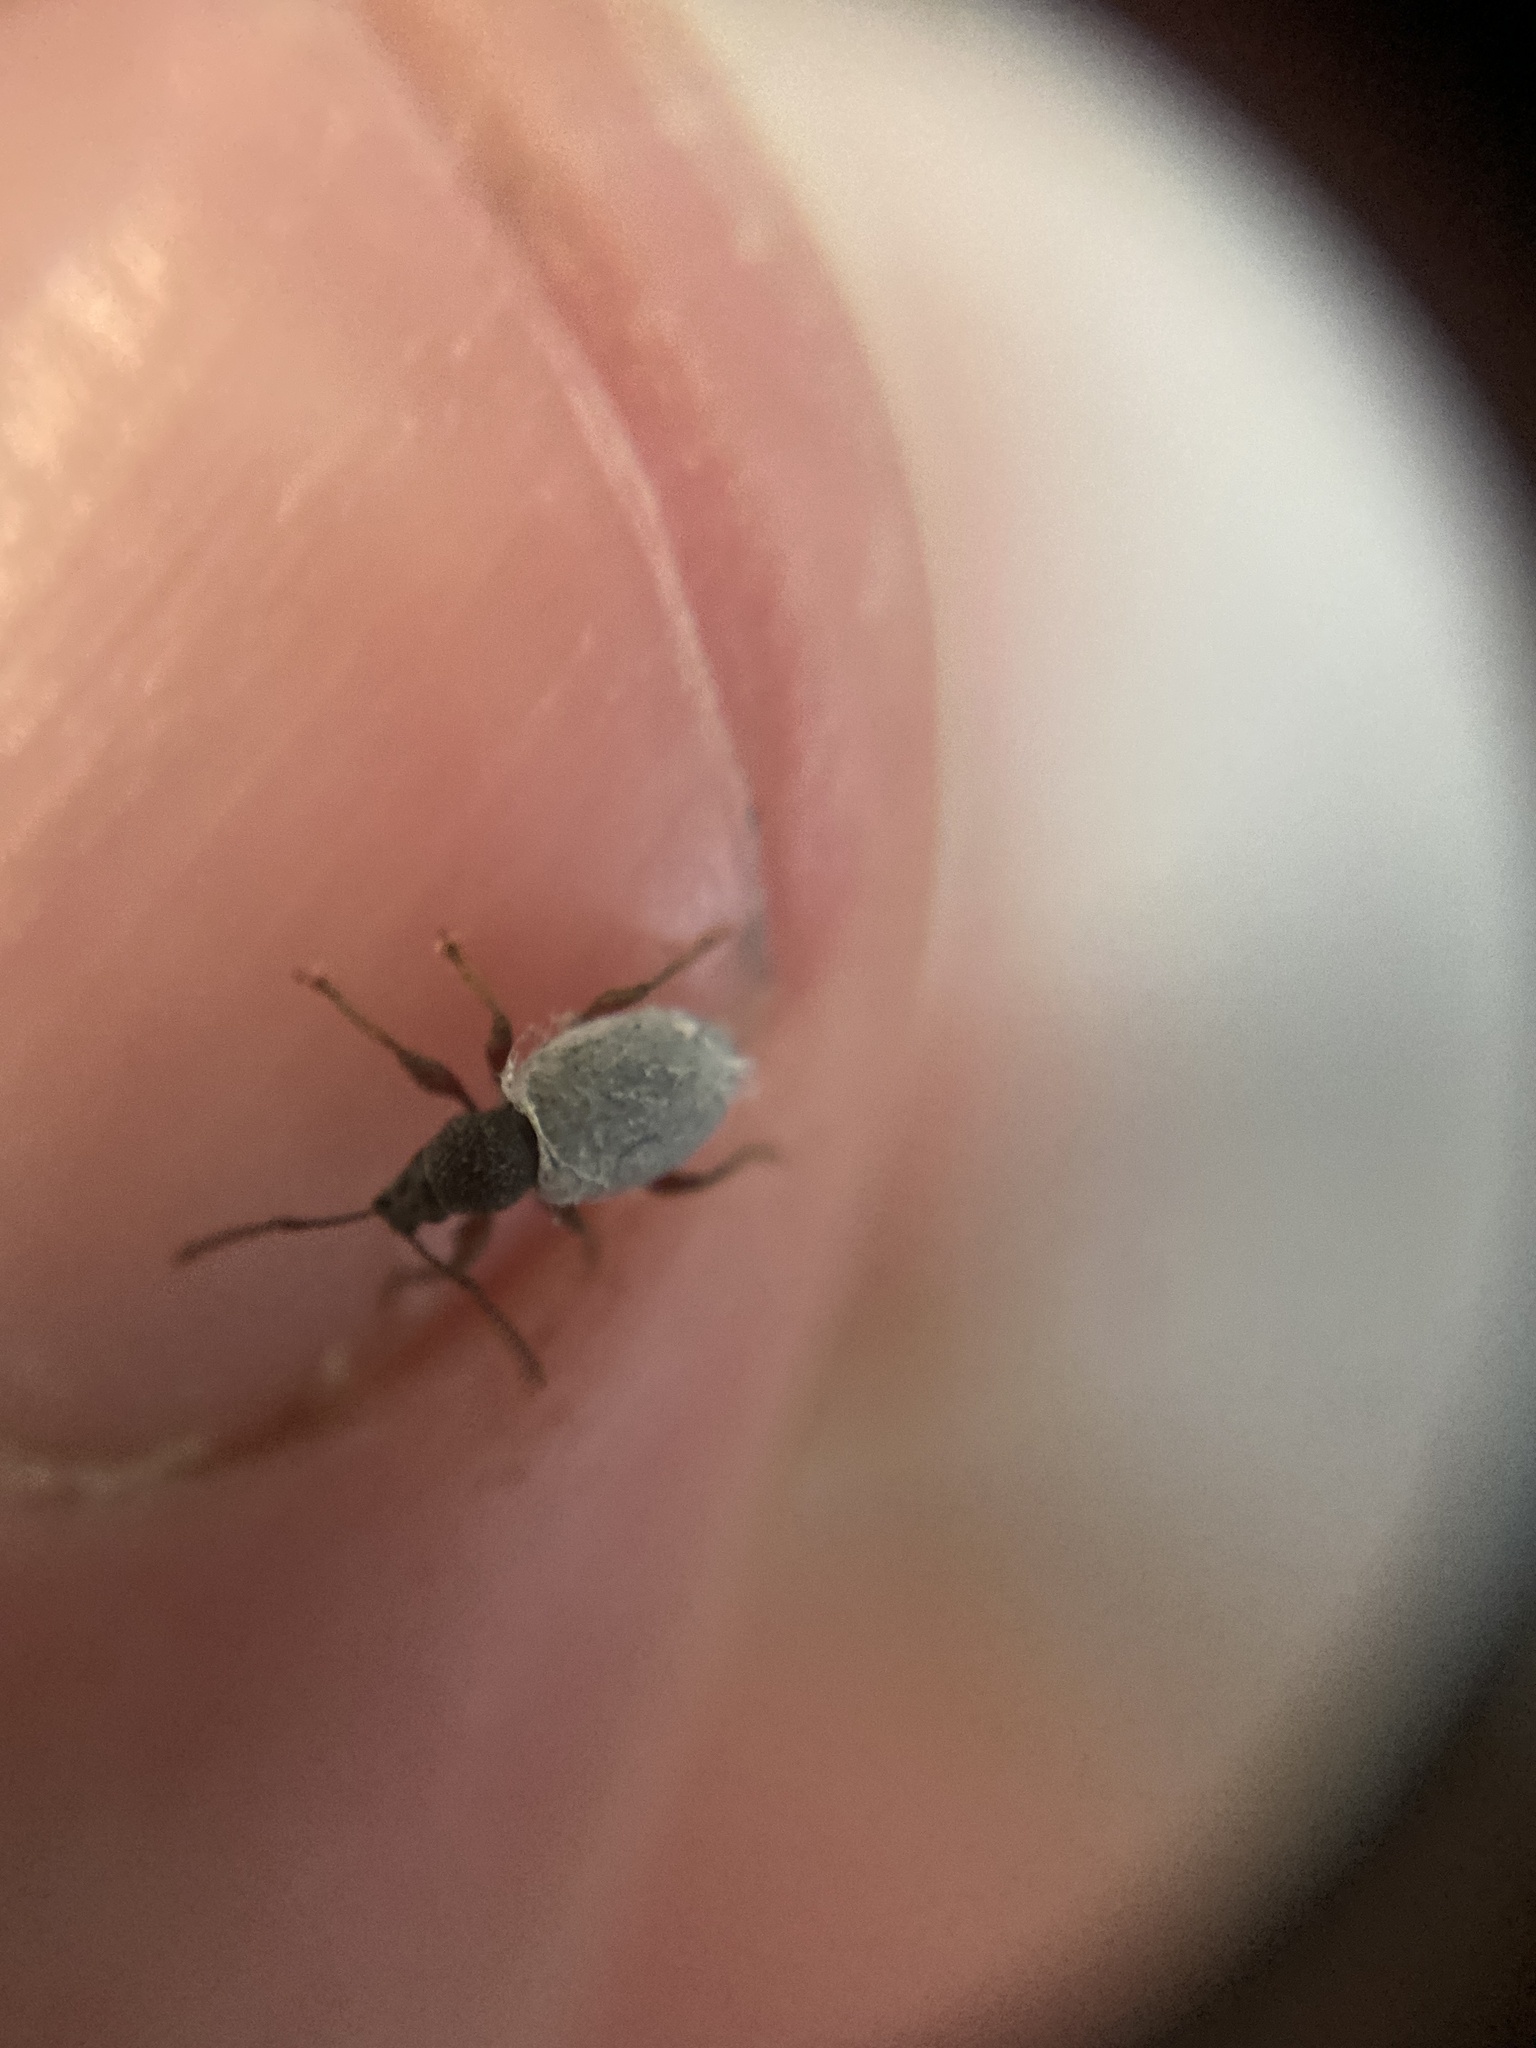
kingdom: Animalia
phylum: Arthropoda
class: Insecta
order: Coleoptera
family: Curculionidae
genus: Otiorhynchus
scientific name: Otiorhynchus ovatus
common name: Strawberry root weevil
